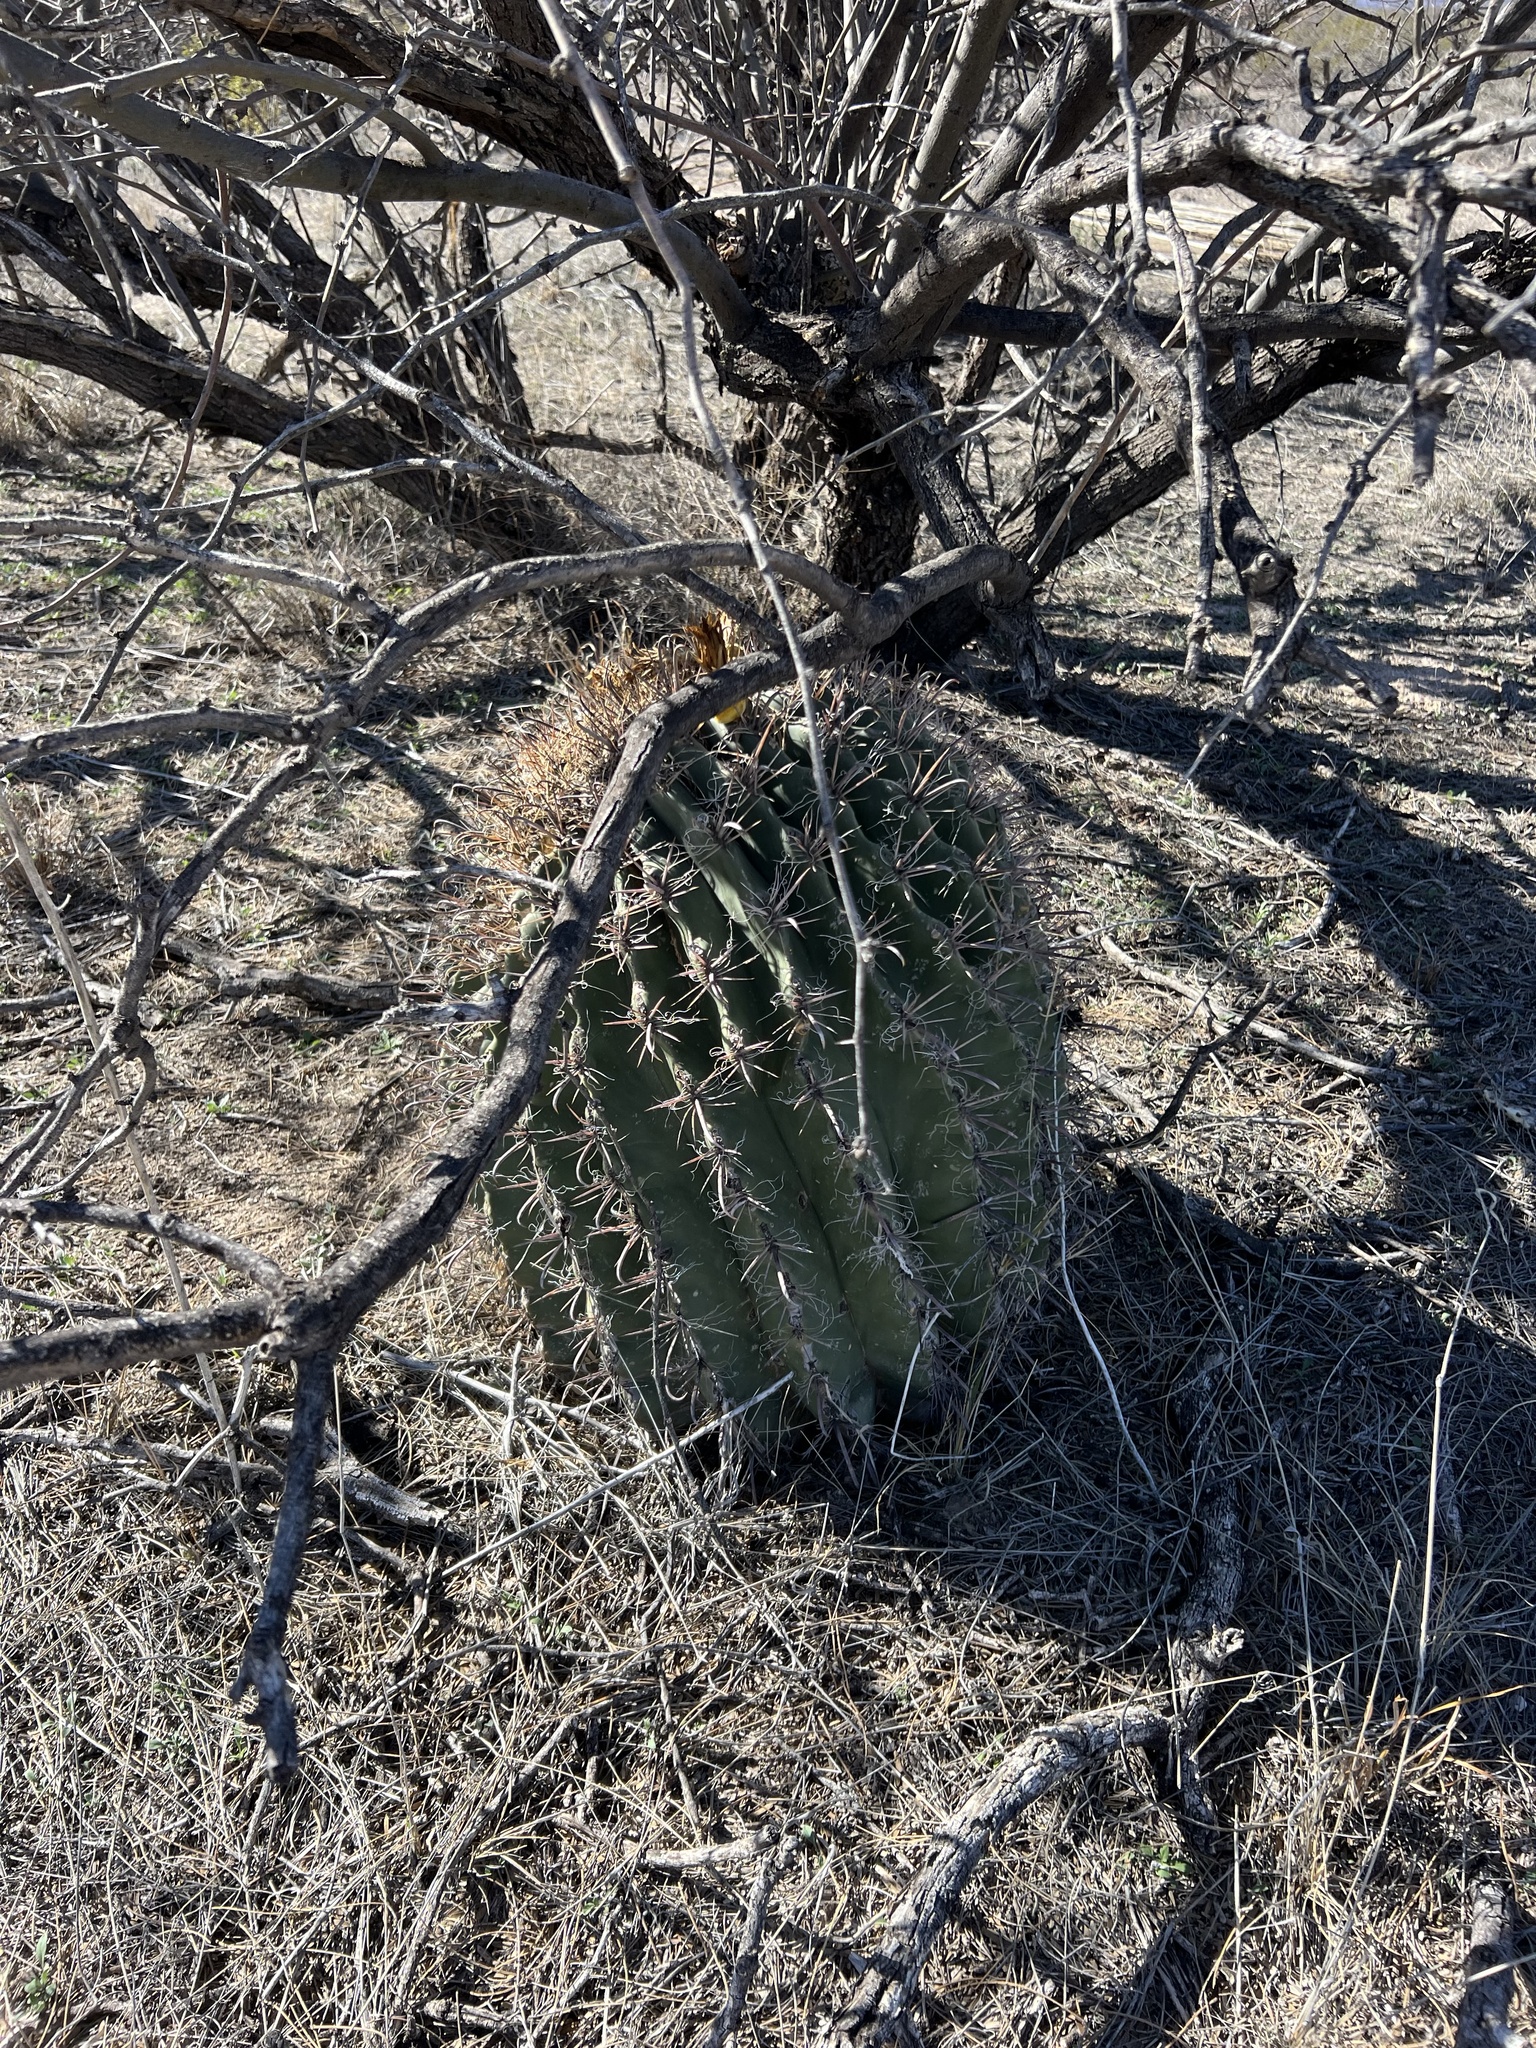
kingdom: Plantae
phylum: Tracheophyta
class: Magnoliopsida
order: Caryophyllales
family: Cactaceae
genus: Ferocactus
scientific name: Ferocactus wislizeni
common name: Candy barrel cactus
